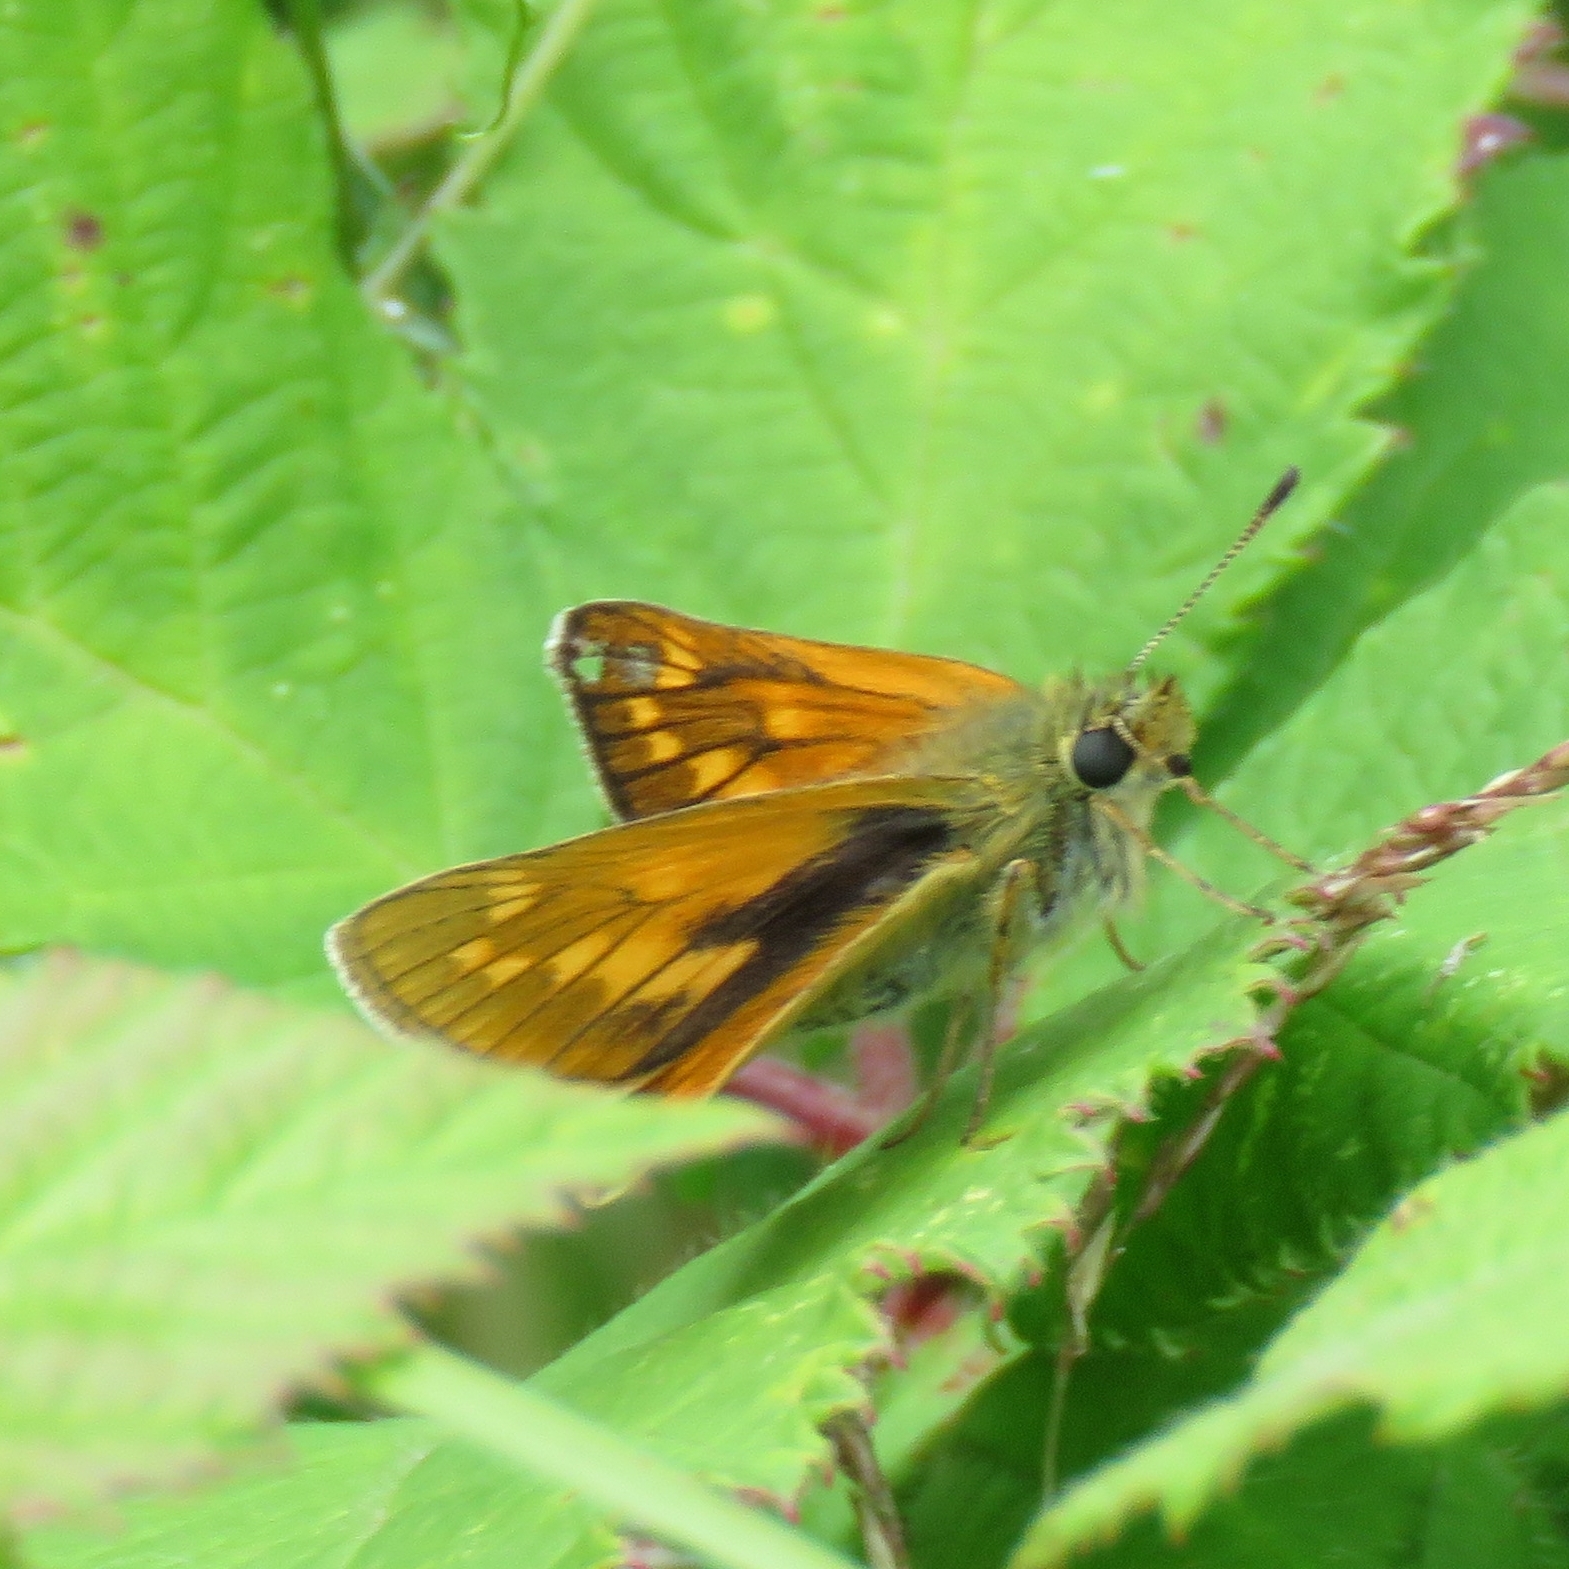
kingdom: Animalia
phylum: Arthropoda
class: Insecta
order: Lepidoptera
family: Hesperiidae
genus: Ochlodes
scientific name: Ochlodes venata
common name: Large skipper
